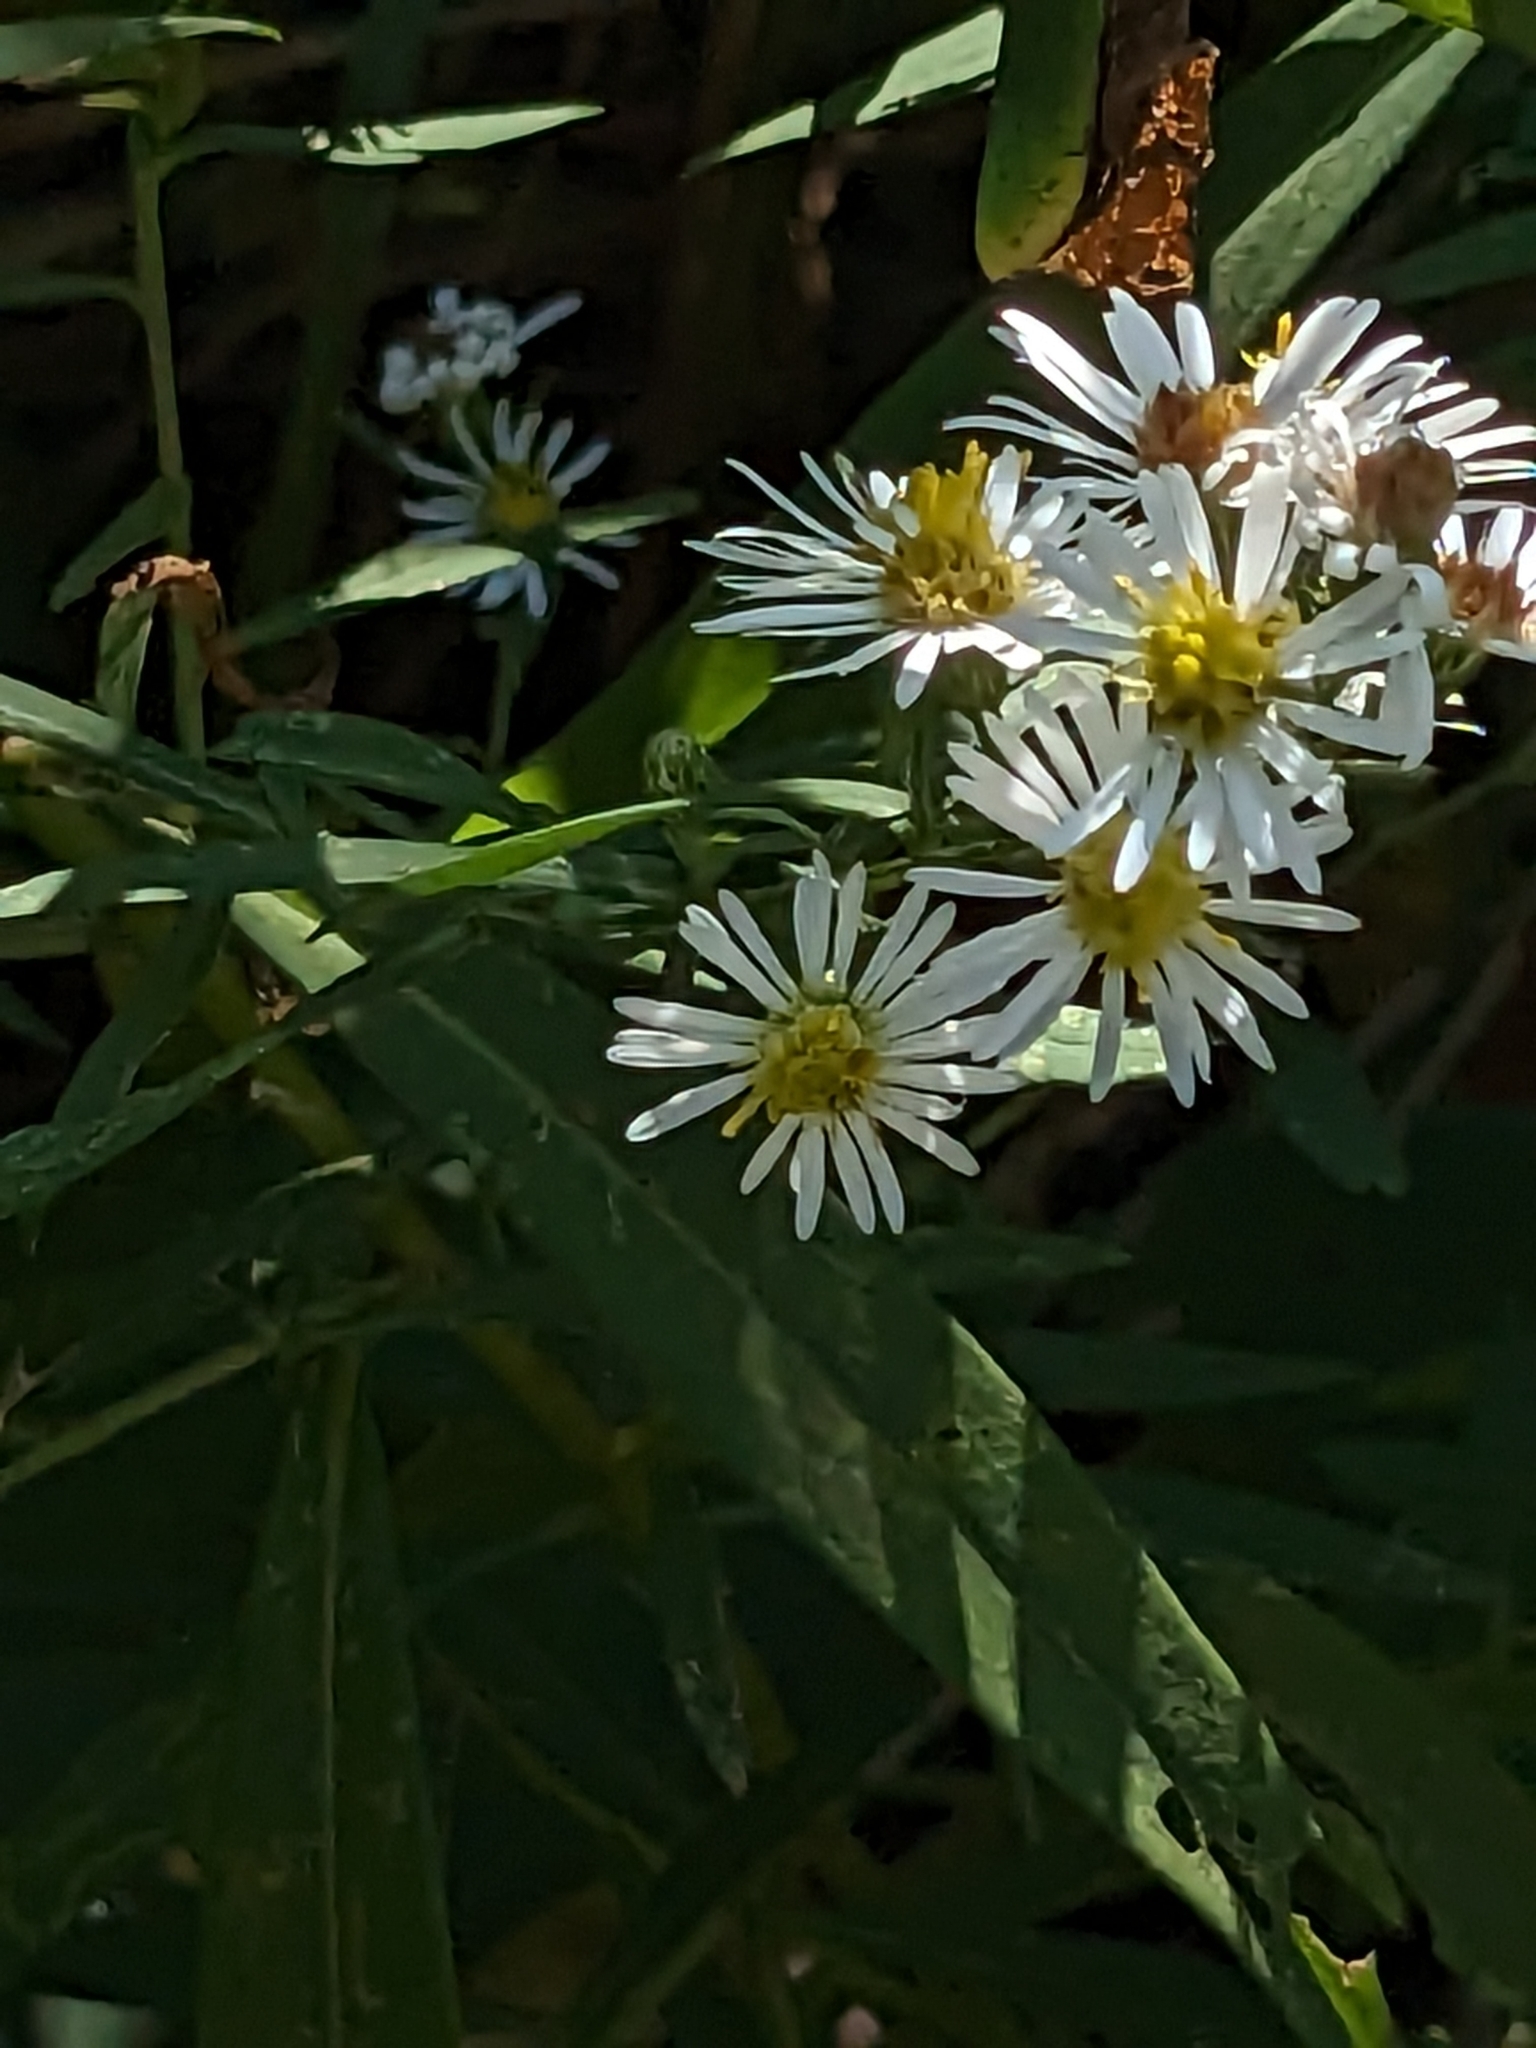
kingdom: Plantae
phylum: Tracheophyta
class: Magnoliopsida
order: Asterales
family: Asteraceae
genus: Symphyotrichum
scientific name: Symphyotrichum lanceolatum
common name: Panicled aster
